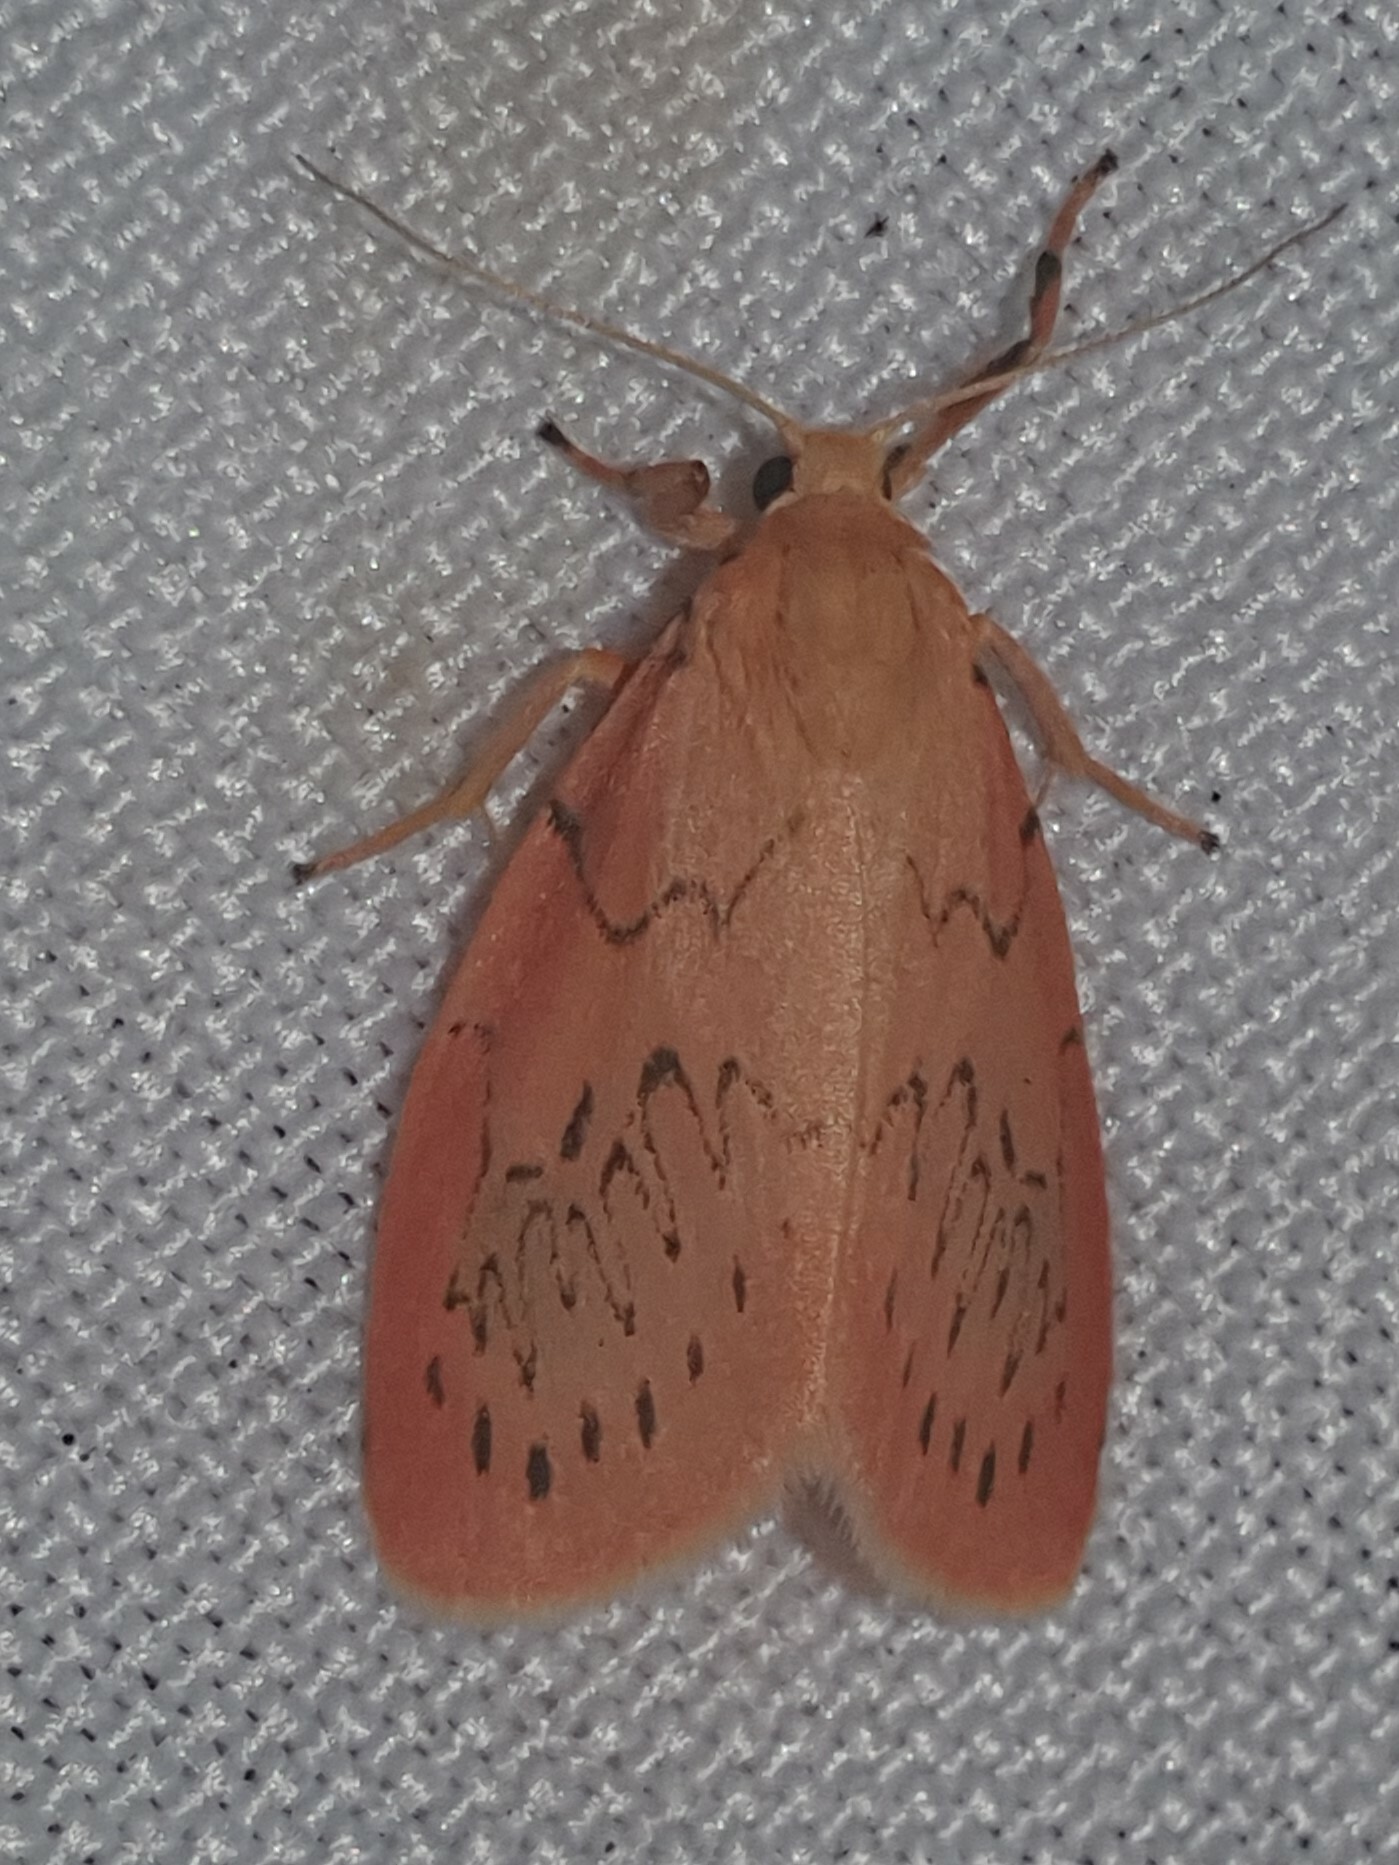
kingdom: Animalia
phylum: Arthropoda
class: Insecta
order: Lepidoptera
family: Erebidae
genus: Miltochrista
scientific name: Miltochrista miniata
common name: Rosy footman
